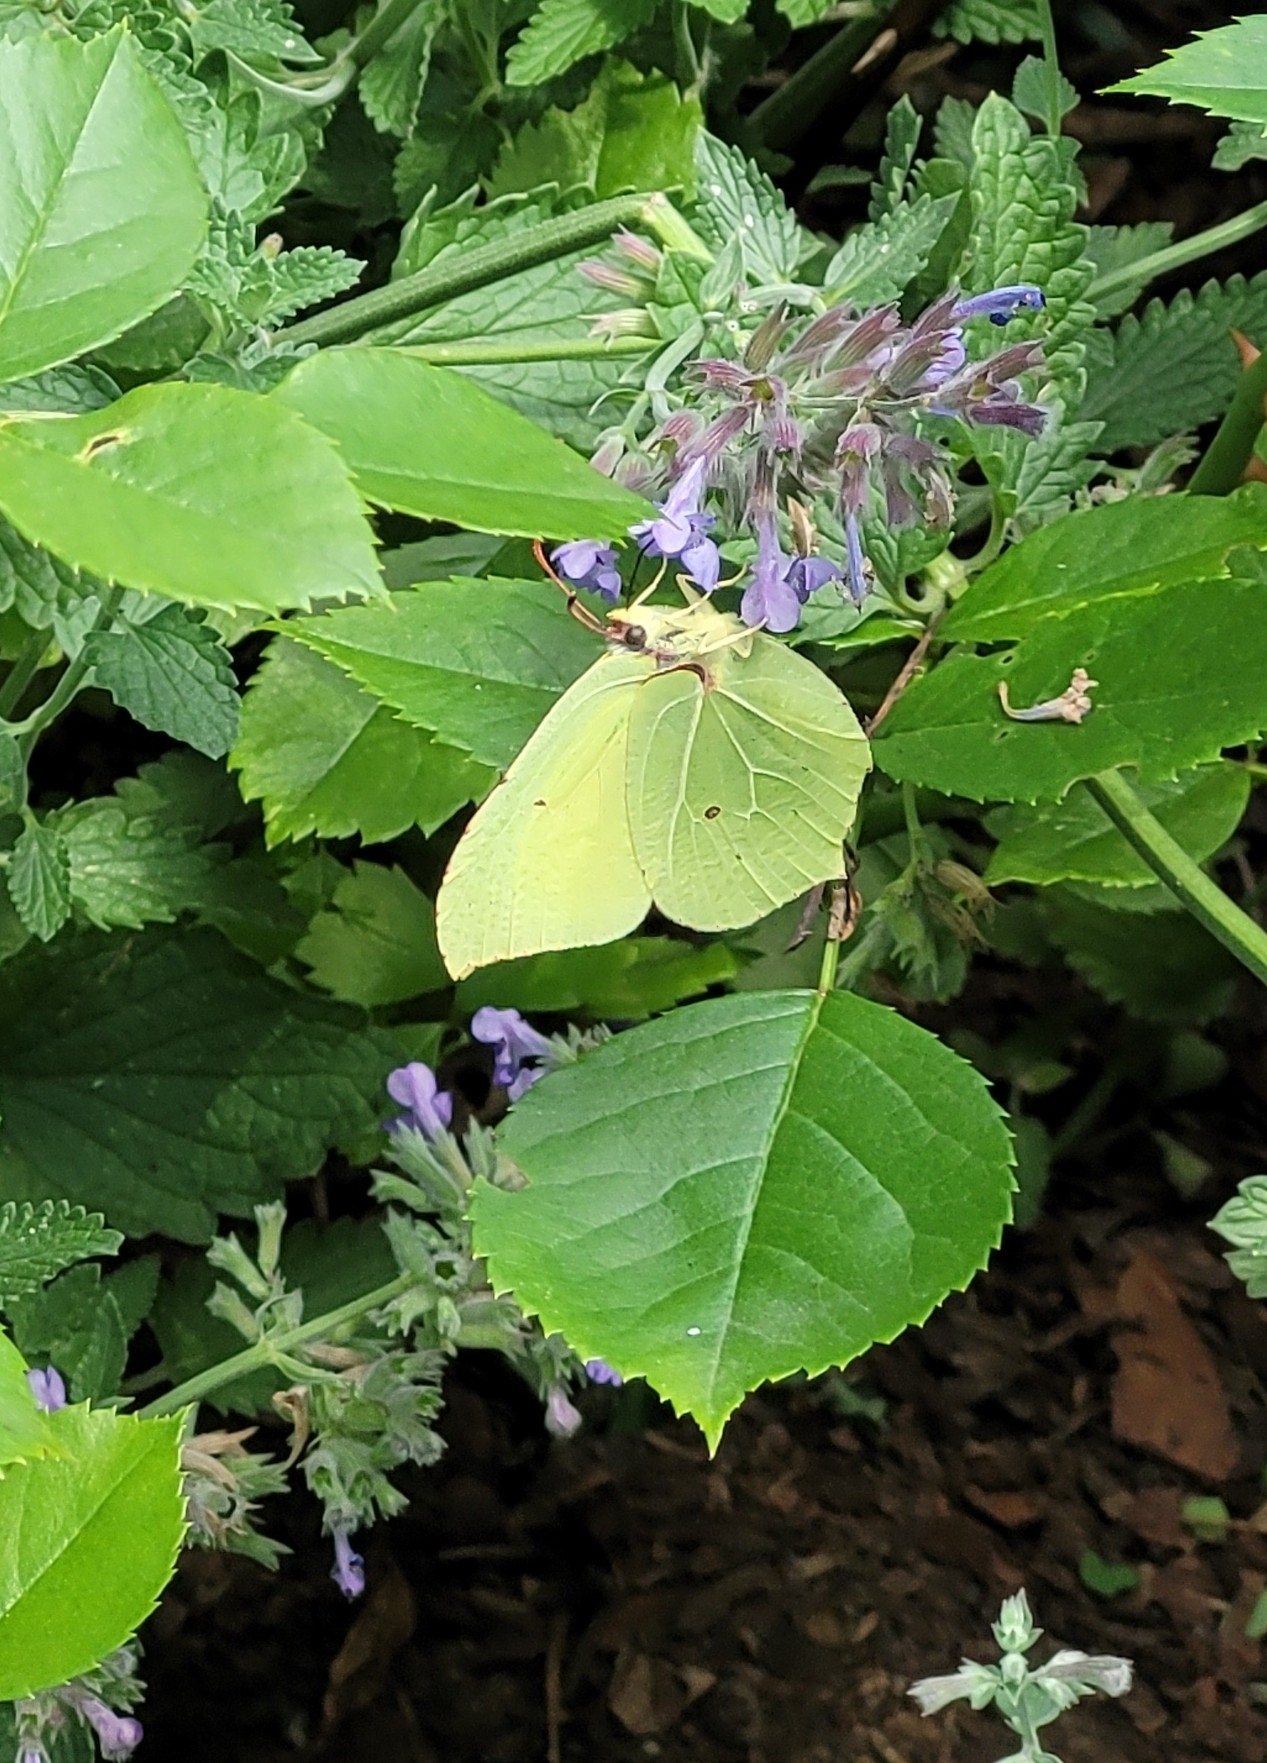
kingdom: Animalia
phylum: Arthropoda
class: Insecta
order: Lepidoptera
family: Pieridae
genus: Gonepteryx
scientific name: Gonepteryx rhamni
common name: Brimstone
